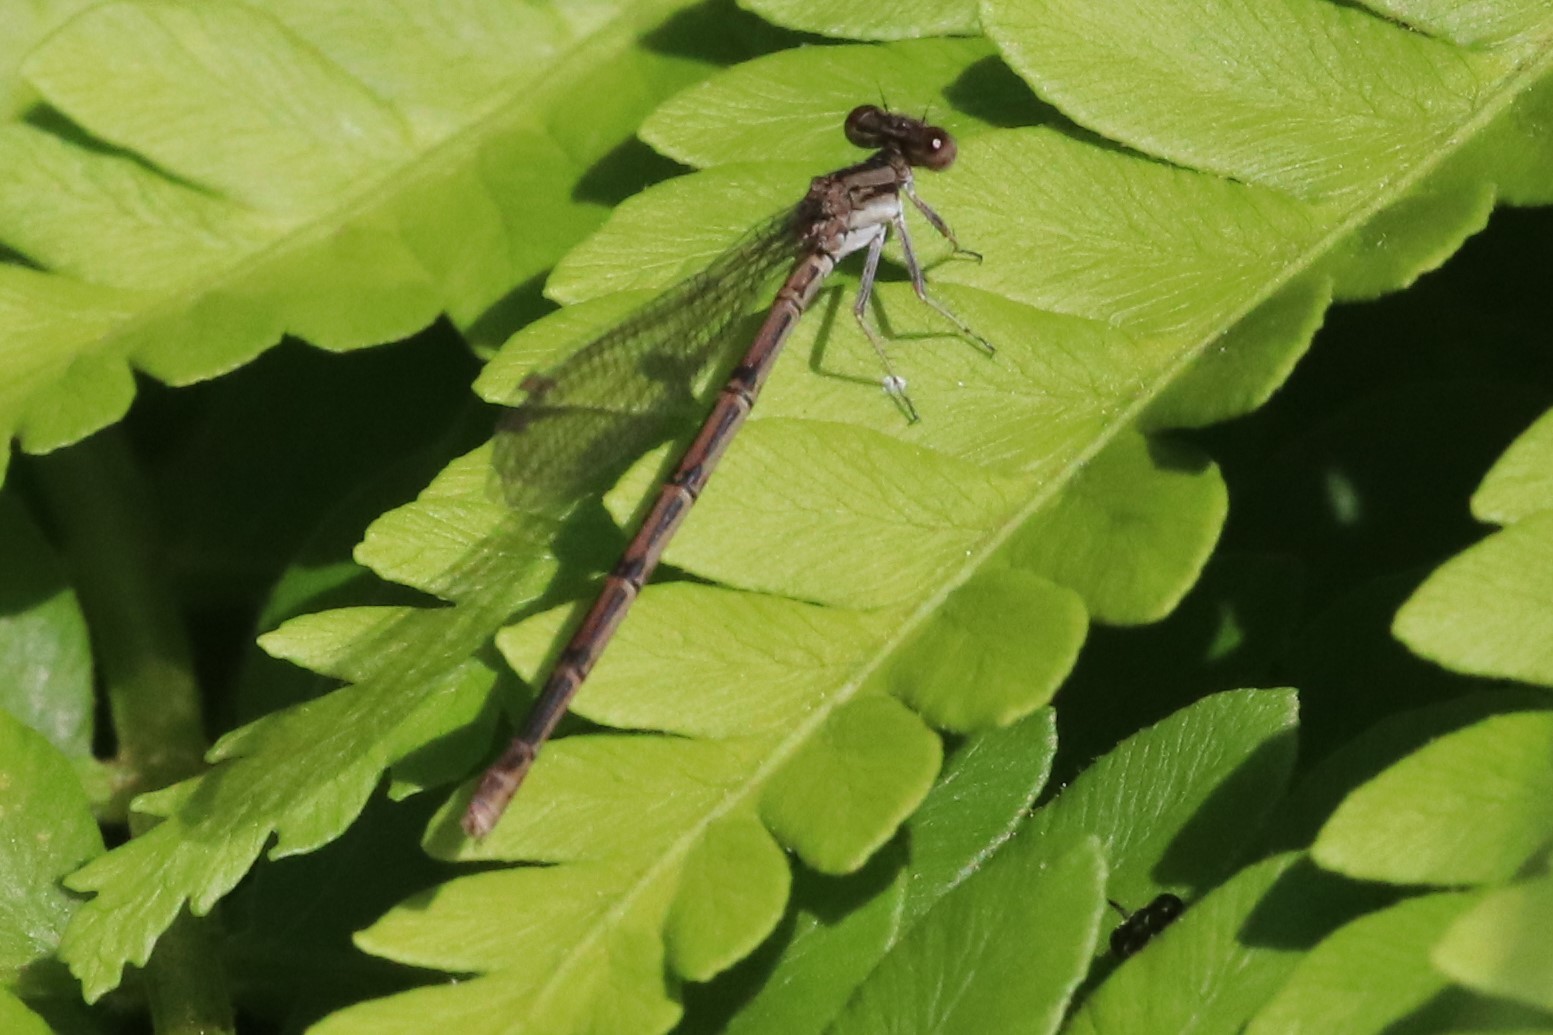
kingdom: Animalia
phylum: Arthropoda
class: Insecta
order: Odonata
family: Coenagrionidae
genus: Argia
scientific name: Argia fumipennis
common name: Variable dancer
